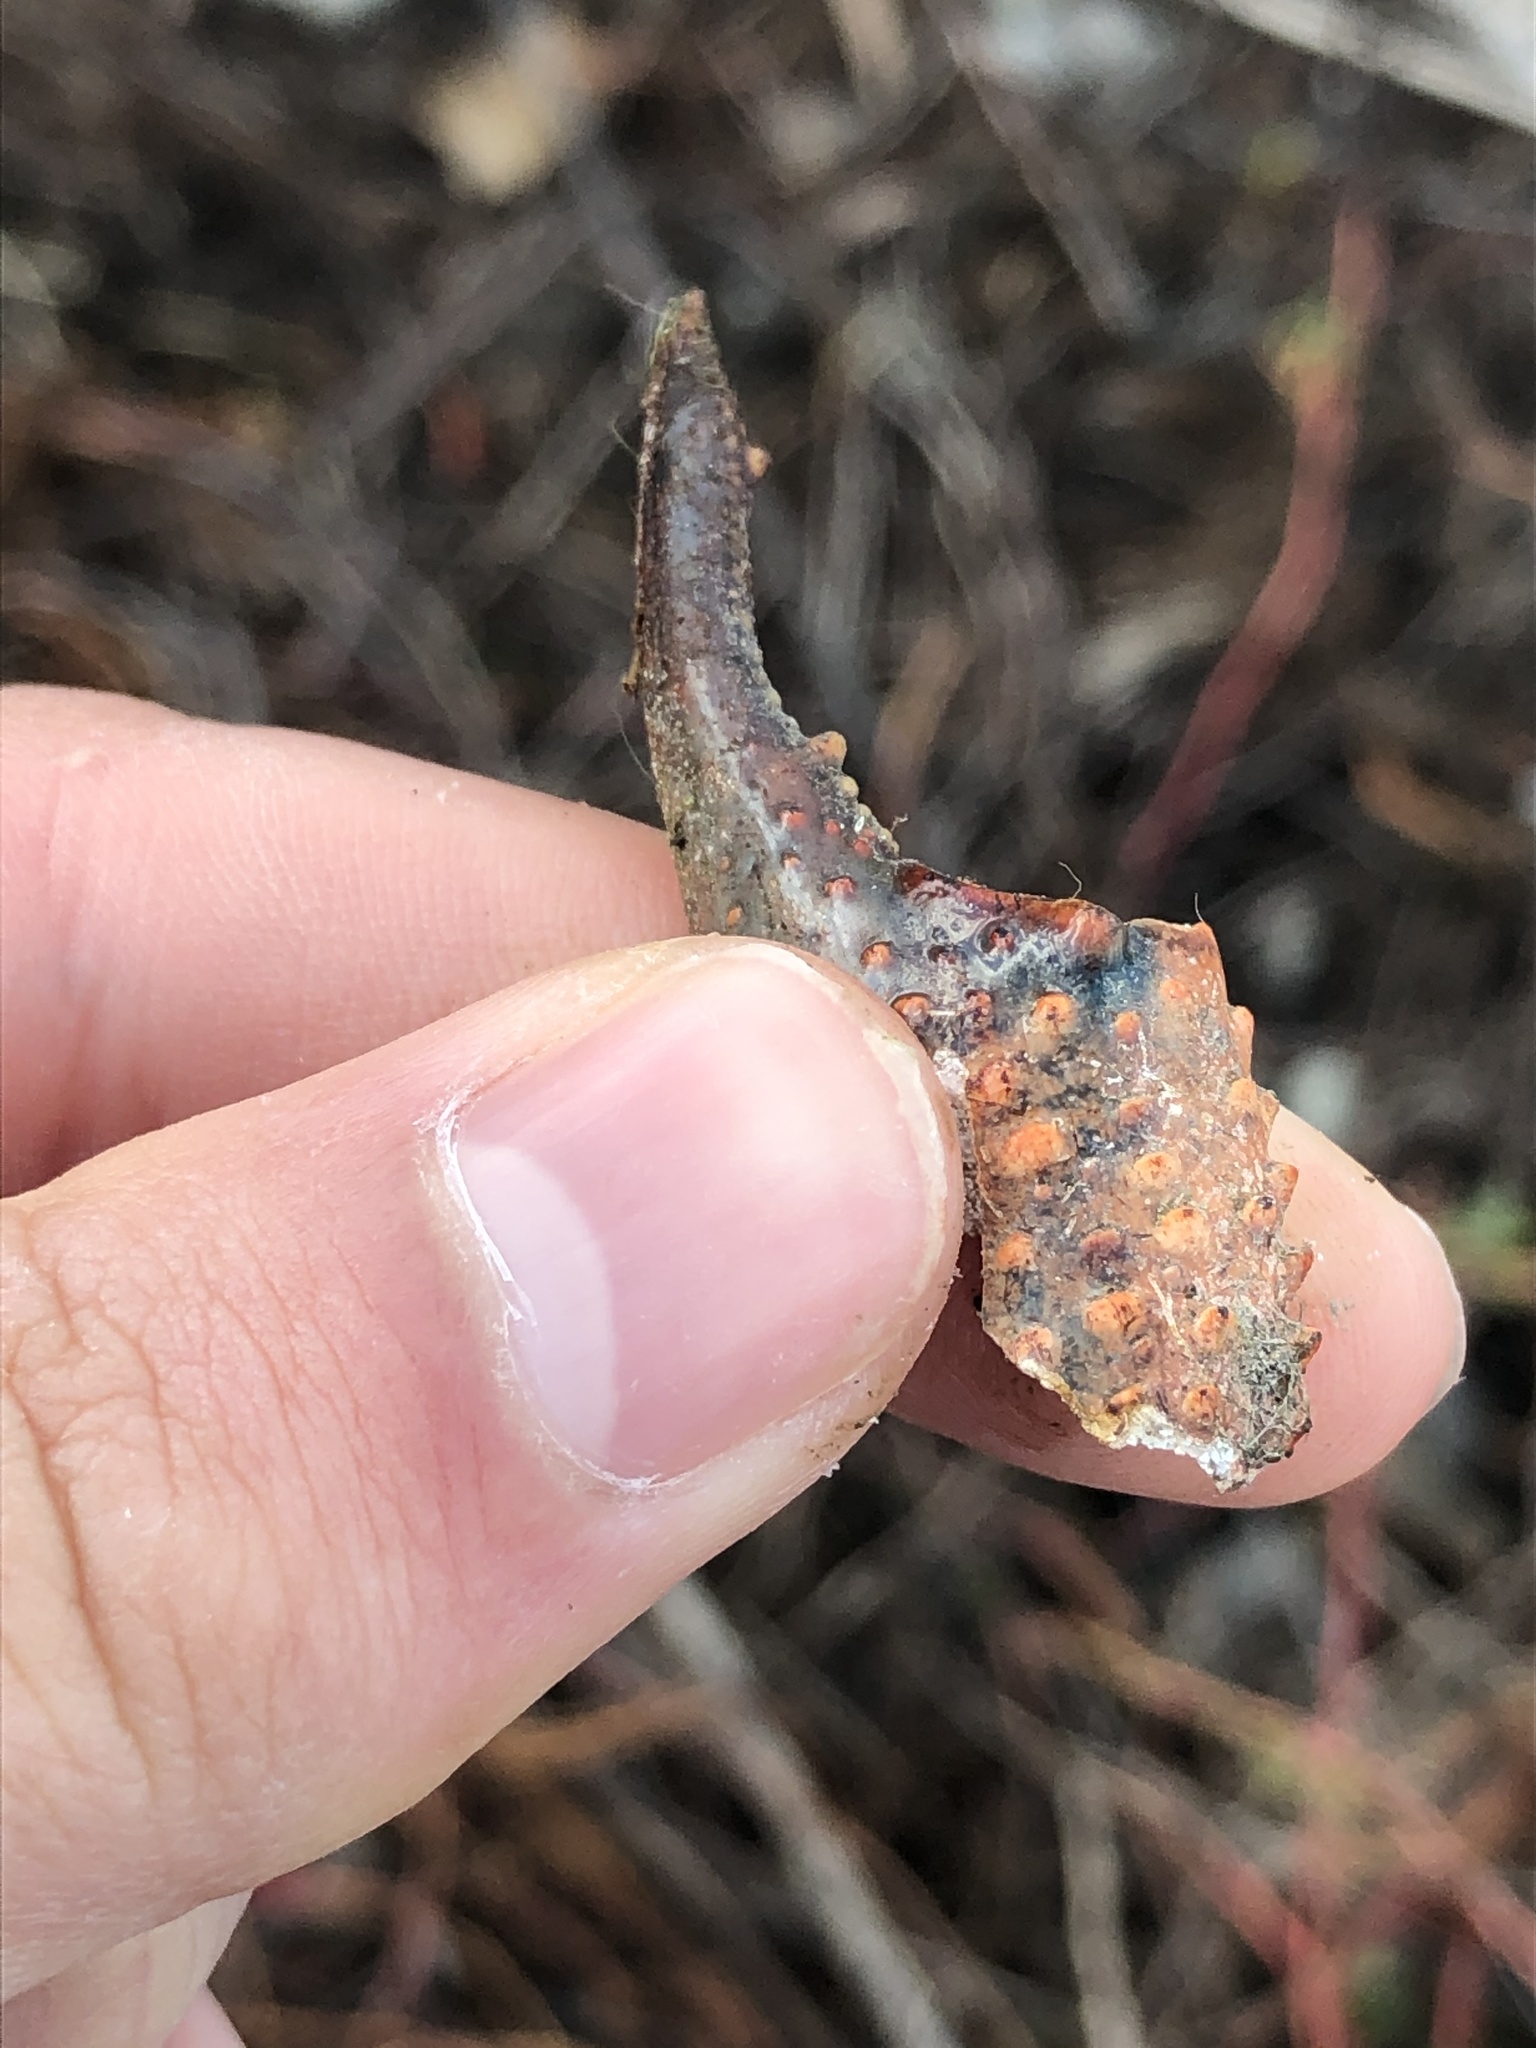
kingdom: Animalia
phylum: Arthropoda
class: Malacostraca
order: Decapoda
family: Cambaridae
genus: Procambarus
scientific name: Procambarus clarkii
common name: Red swamp crayfish
